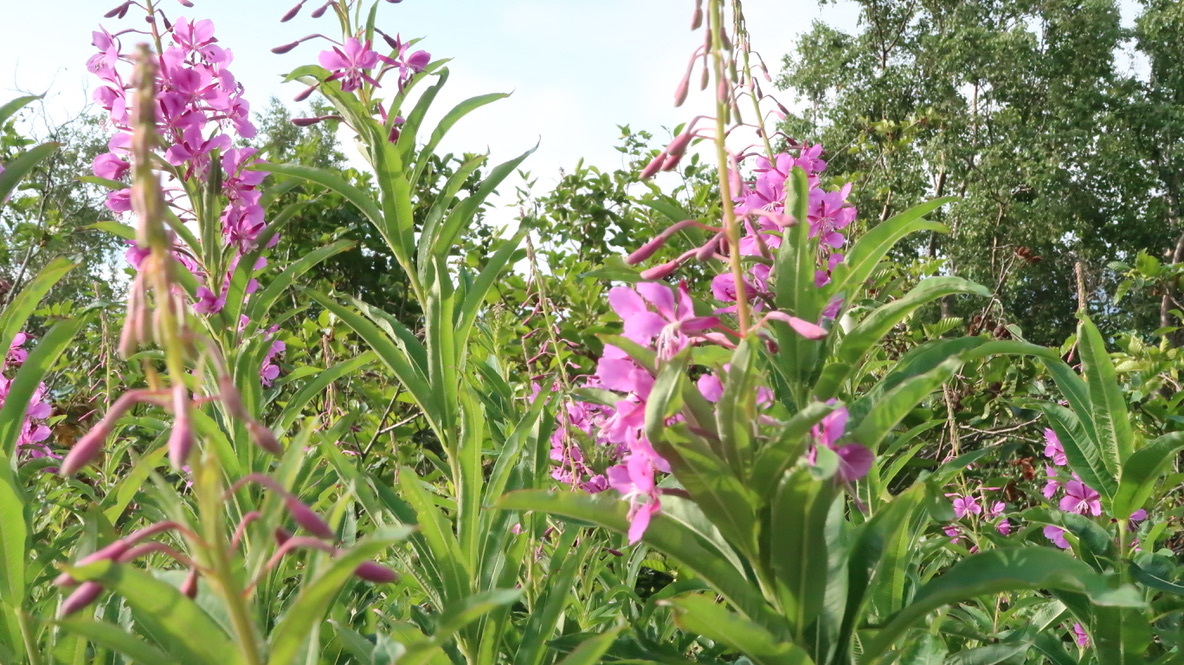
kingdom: Plantae
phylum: Tracheophyta
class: Magnoliopsida
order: Myrtales
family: Onagraceae
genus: Chamaenerion
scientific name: Chamaenerion angustifolium
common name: Fireweed
